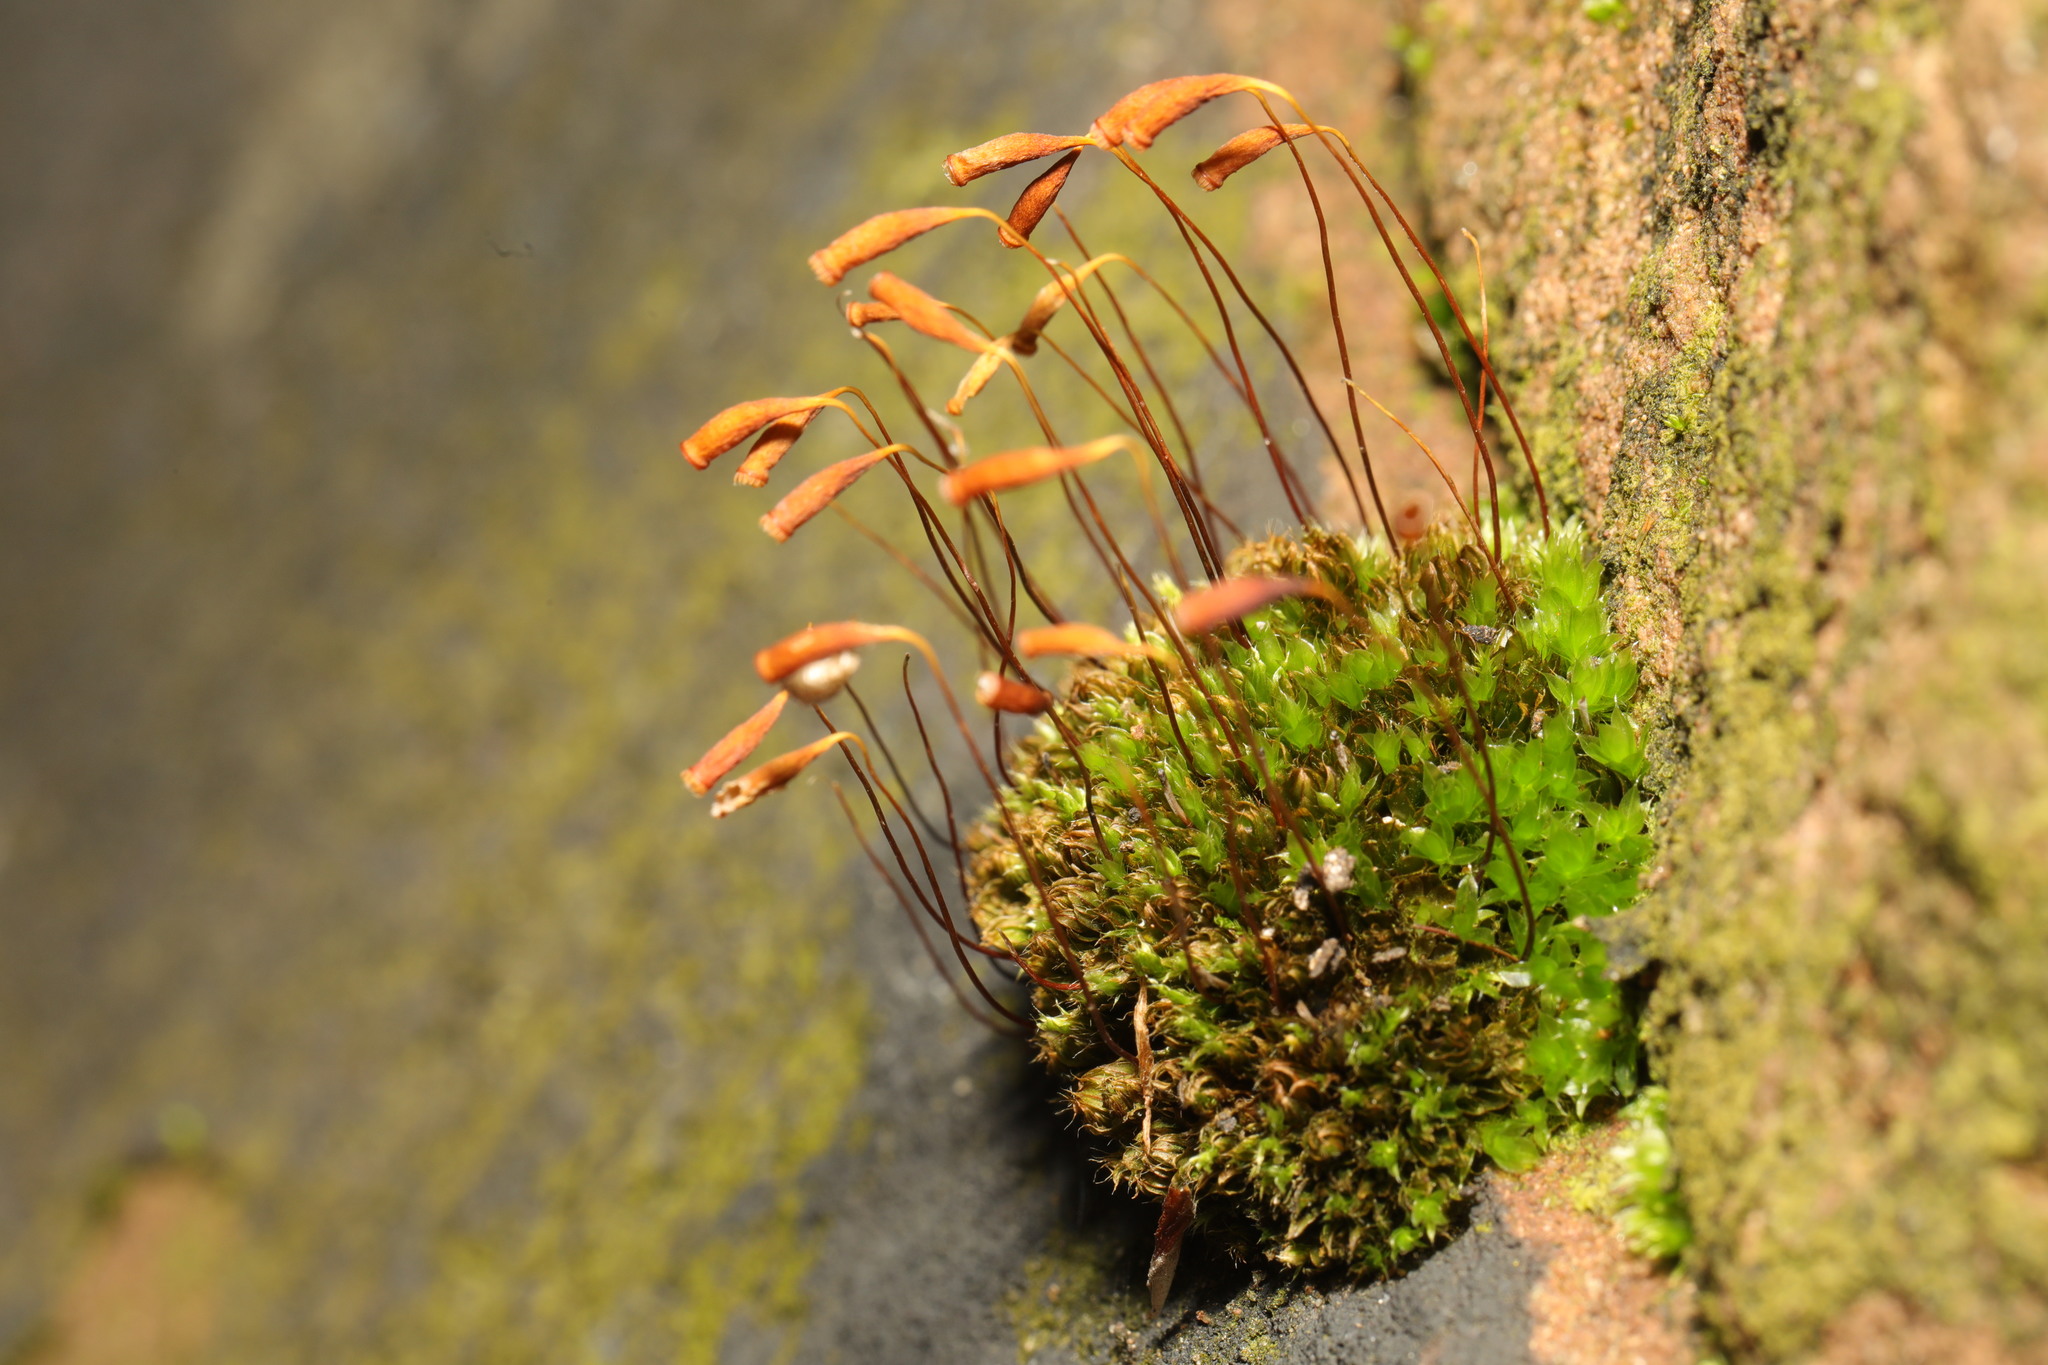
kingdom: Plantae
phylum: Bryophyta
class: Bryopsida
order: Bryales
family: Bryaceae
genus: Rosulabryum
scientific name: Rosulabryum capillare
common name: Capillary thread-moss
